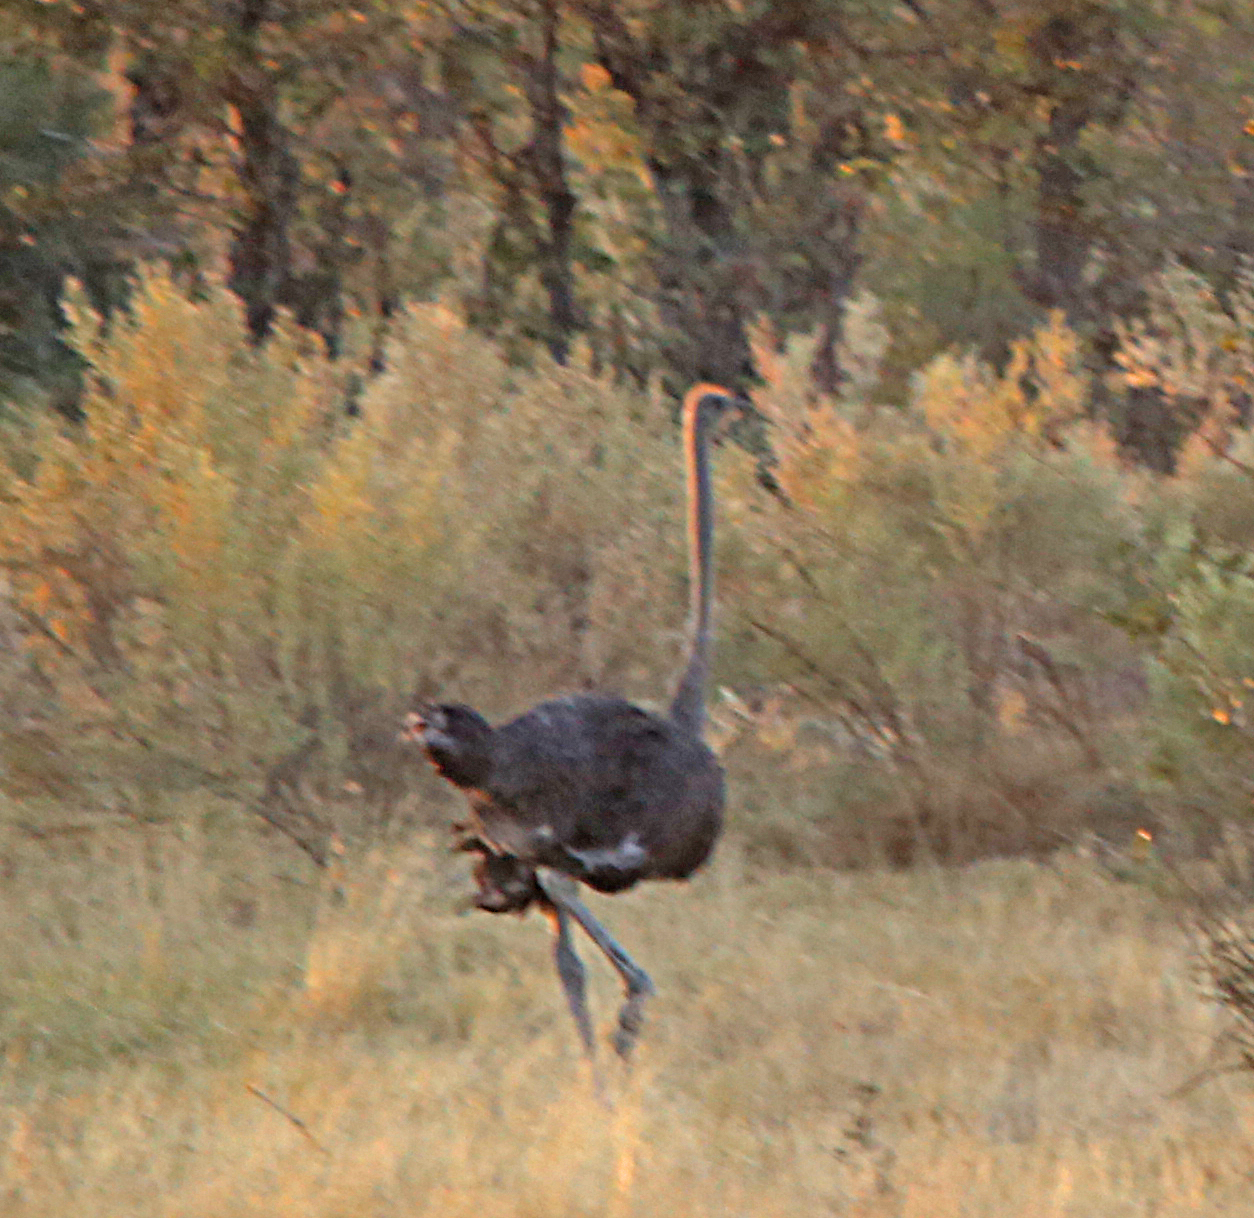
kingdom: Animalia
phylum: Chordata
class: Aves
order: Struthioniformes
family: Struthionidae
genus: Struthio
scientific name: Struthio camelus
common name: Common ostrich
